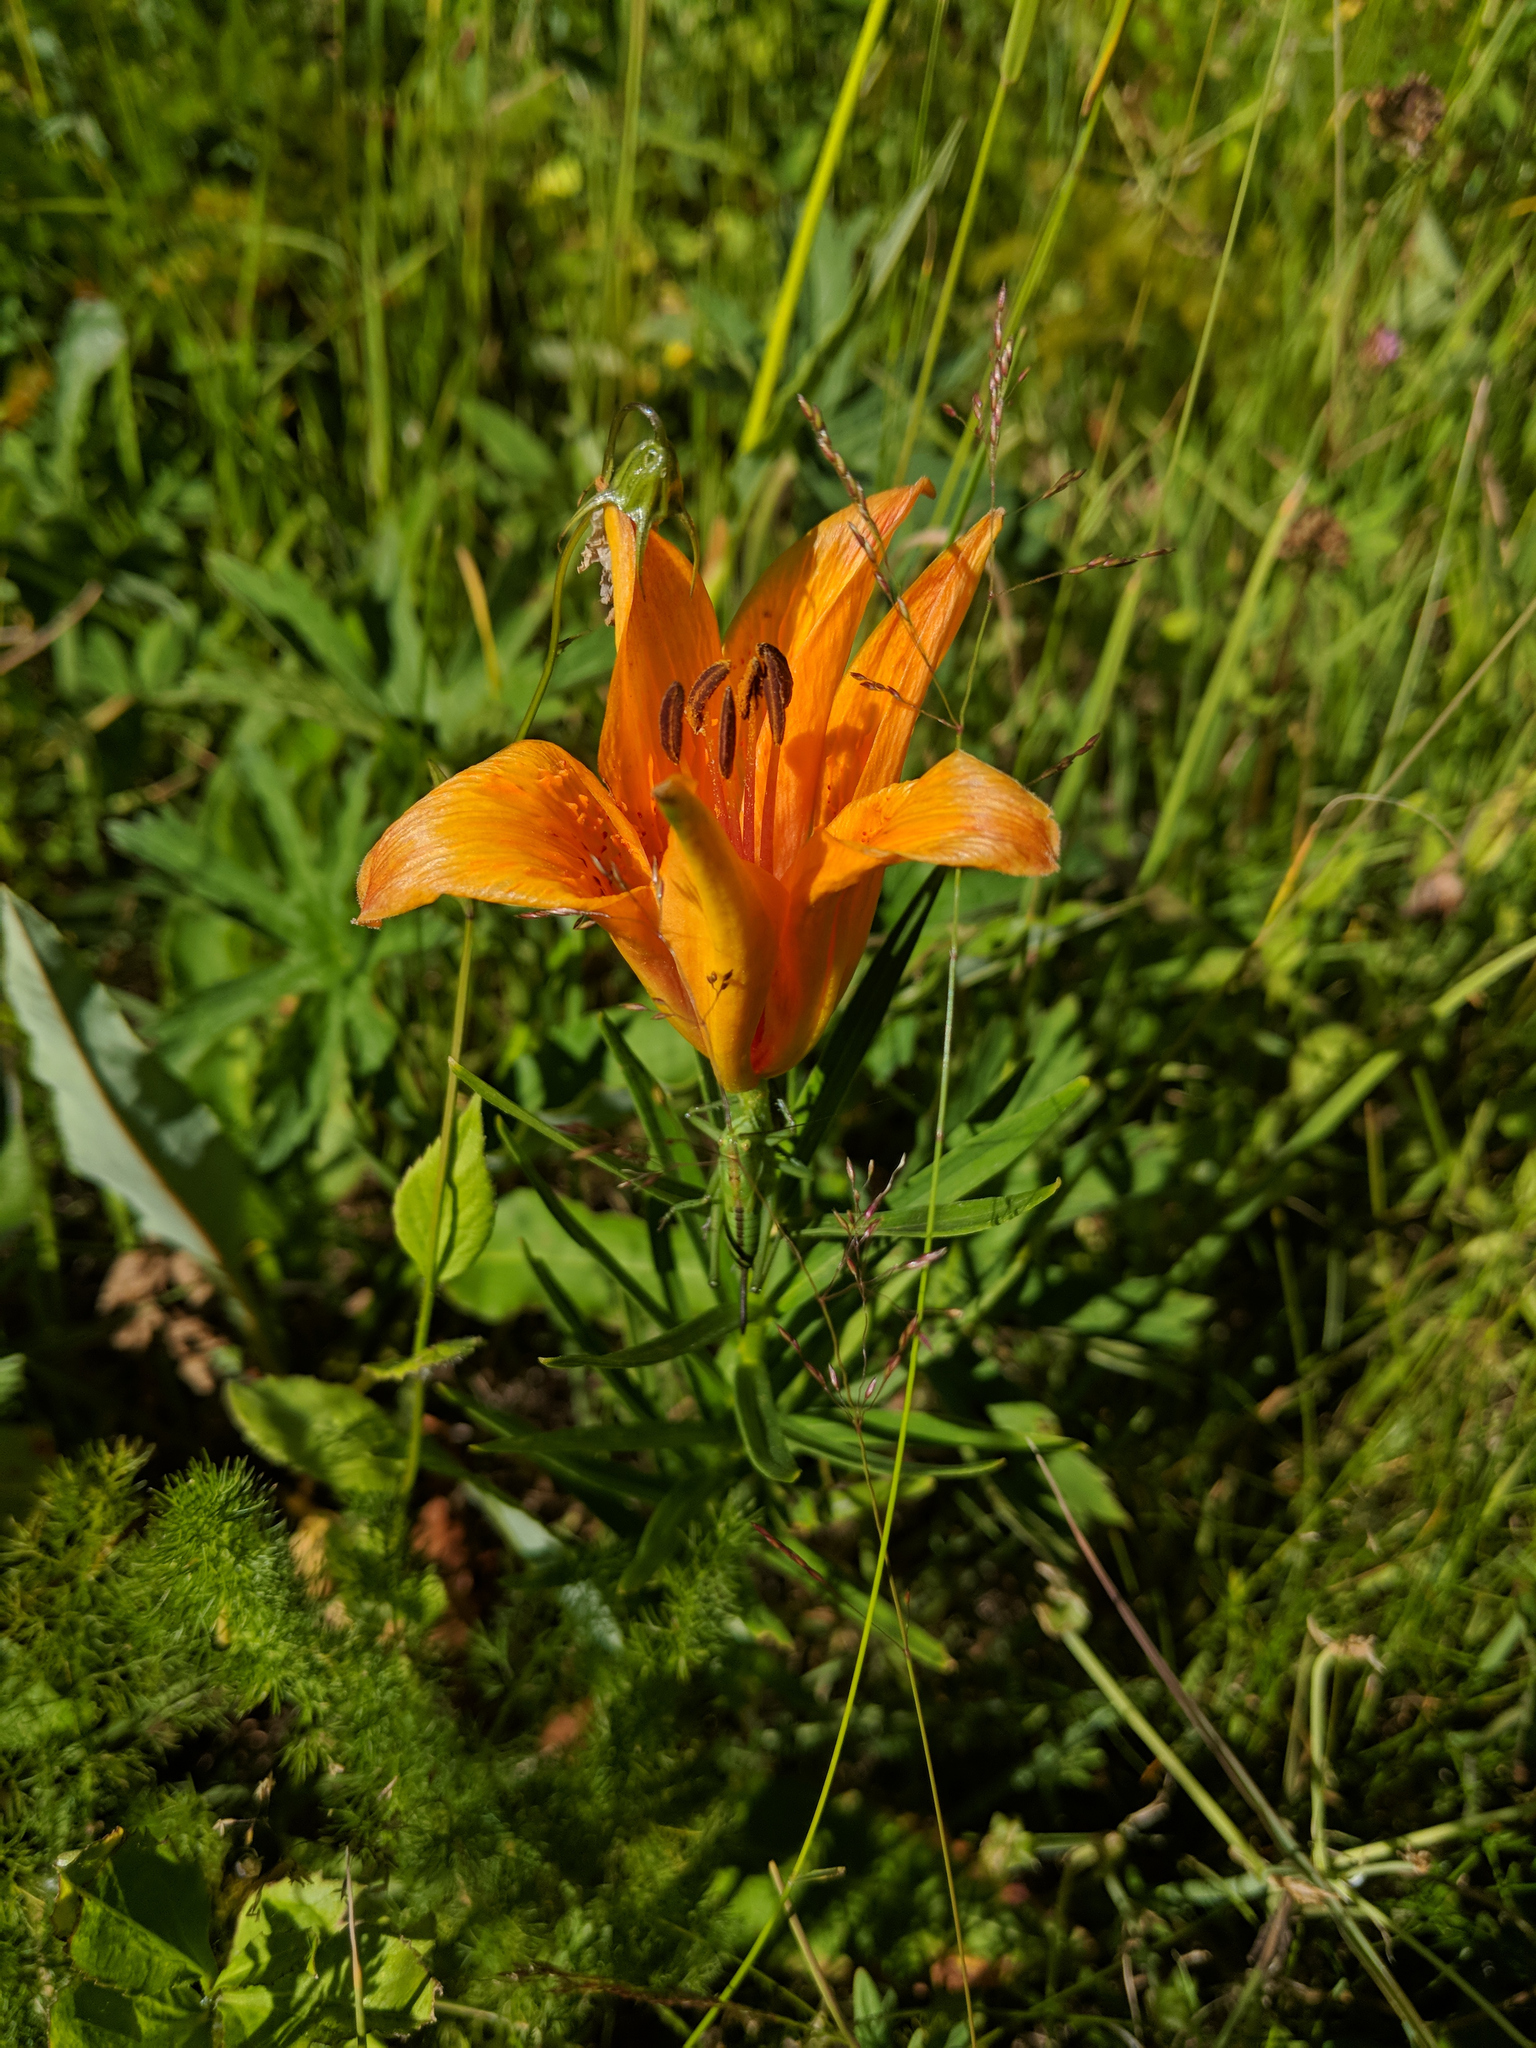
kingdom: Plantae
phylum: Tracheophyta
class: Liliopsida
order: Liliales
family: Liliaceae
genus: Lilium
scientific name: Lilium bulbiferum
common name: Orange lily
